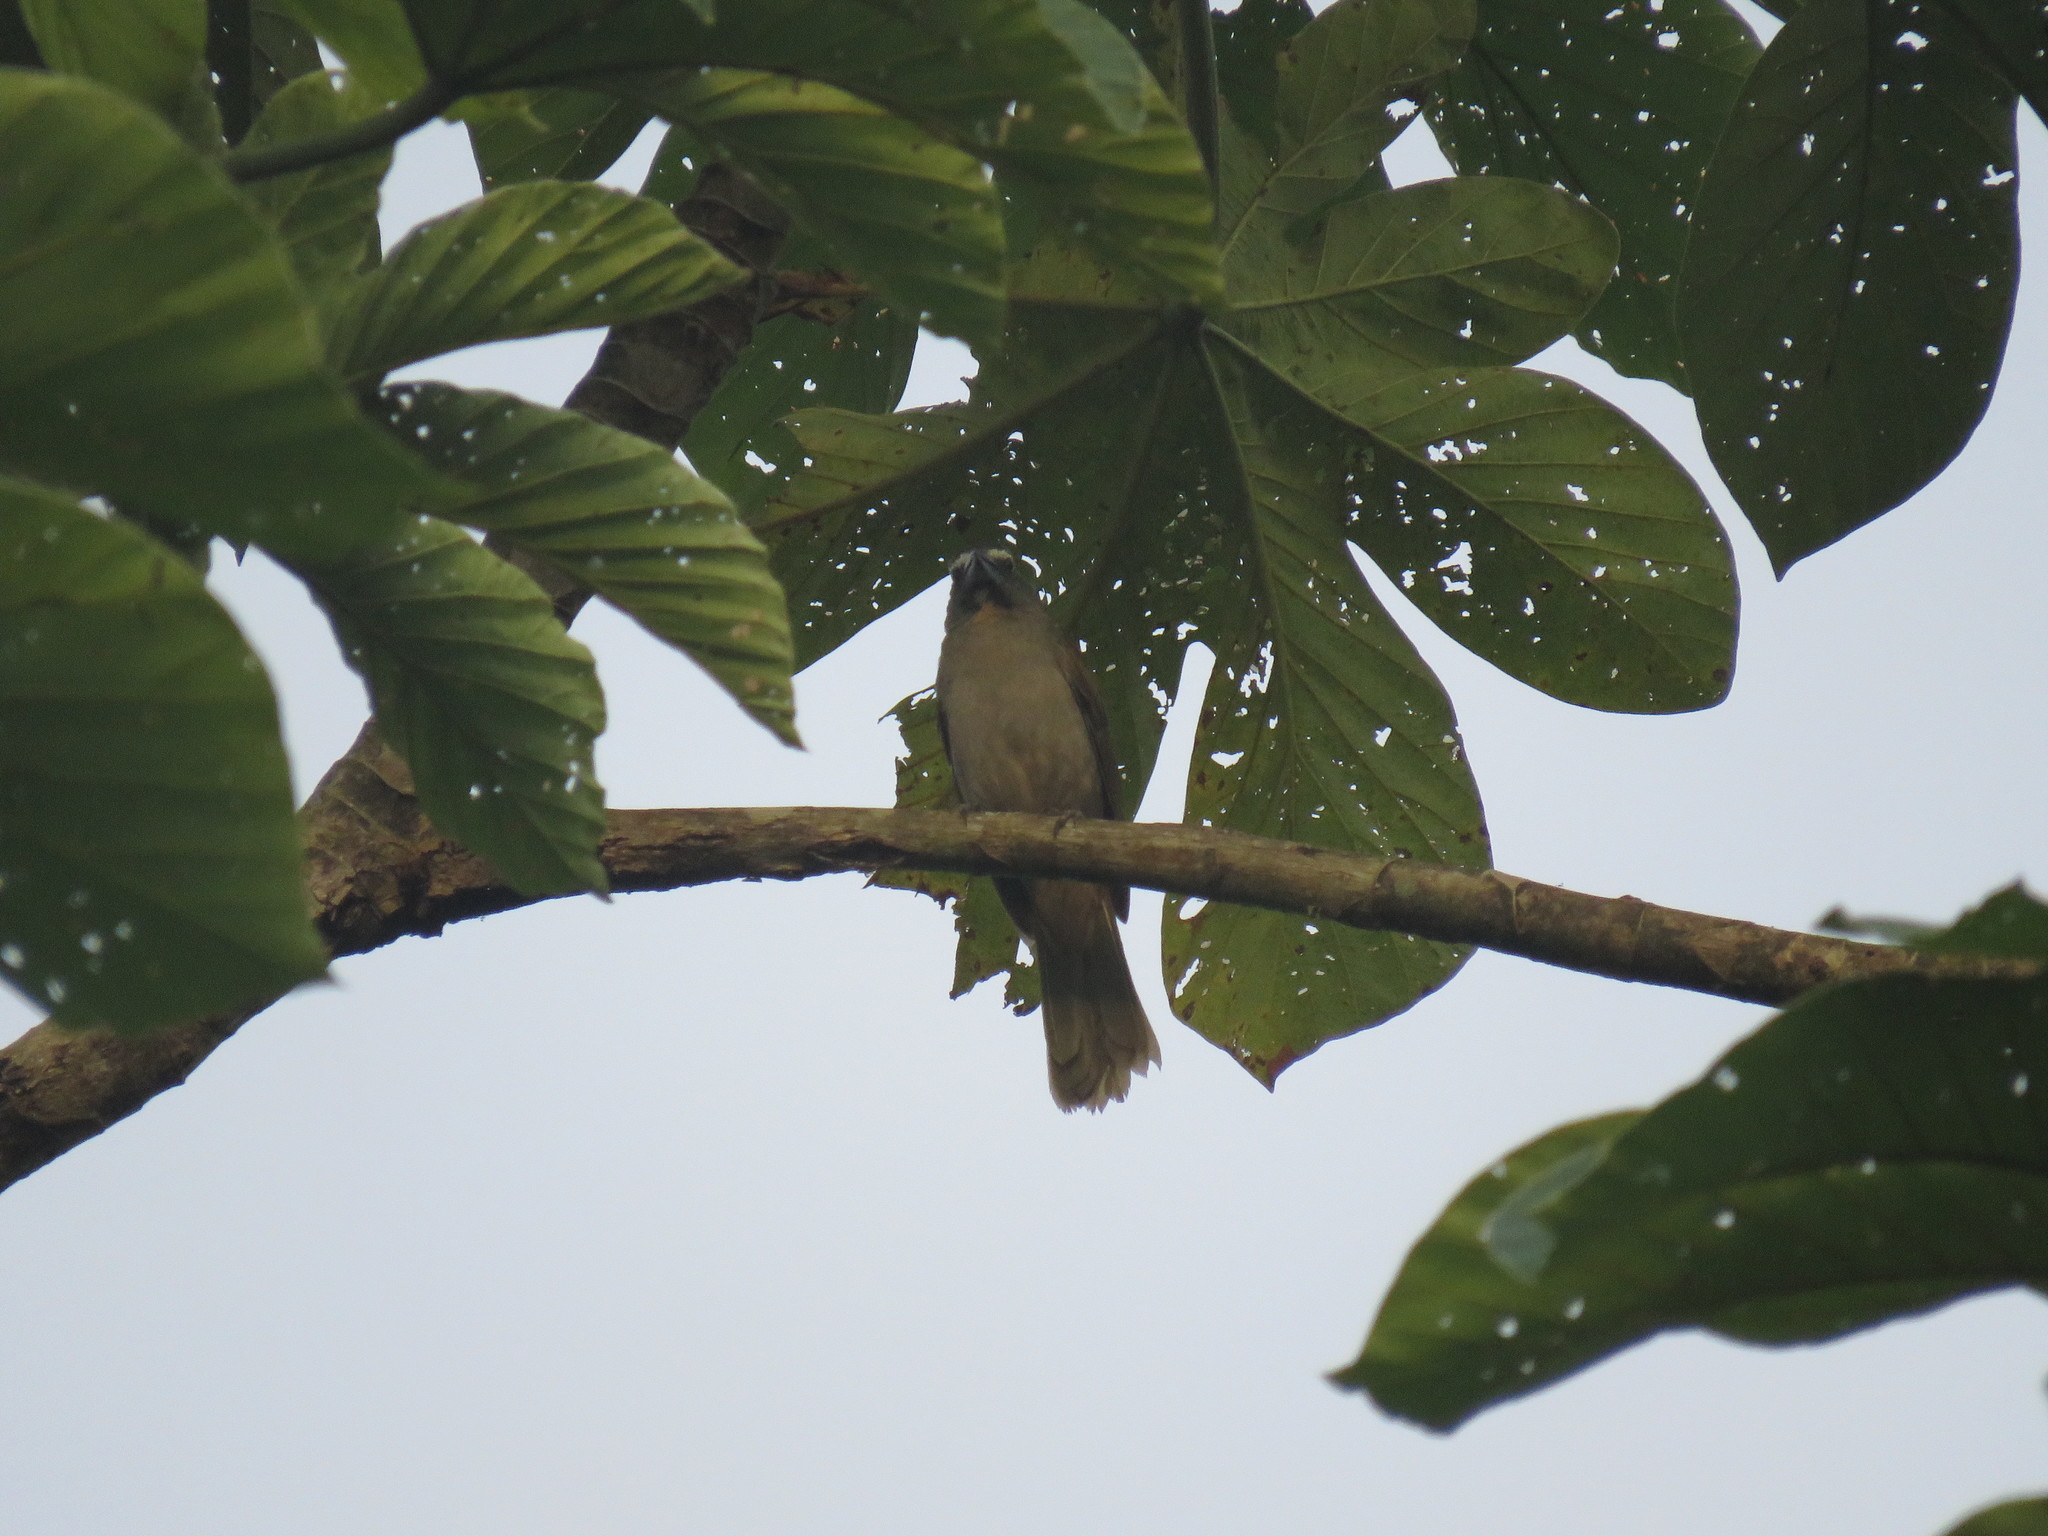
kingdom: Animalia
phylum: Chordata
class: Aves
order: Passeriformes
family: Thraupidae
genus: Saltator
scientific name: Saltator coerulescens
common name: Grayish saltator
